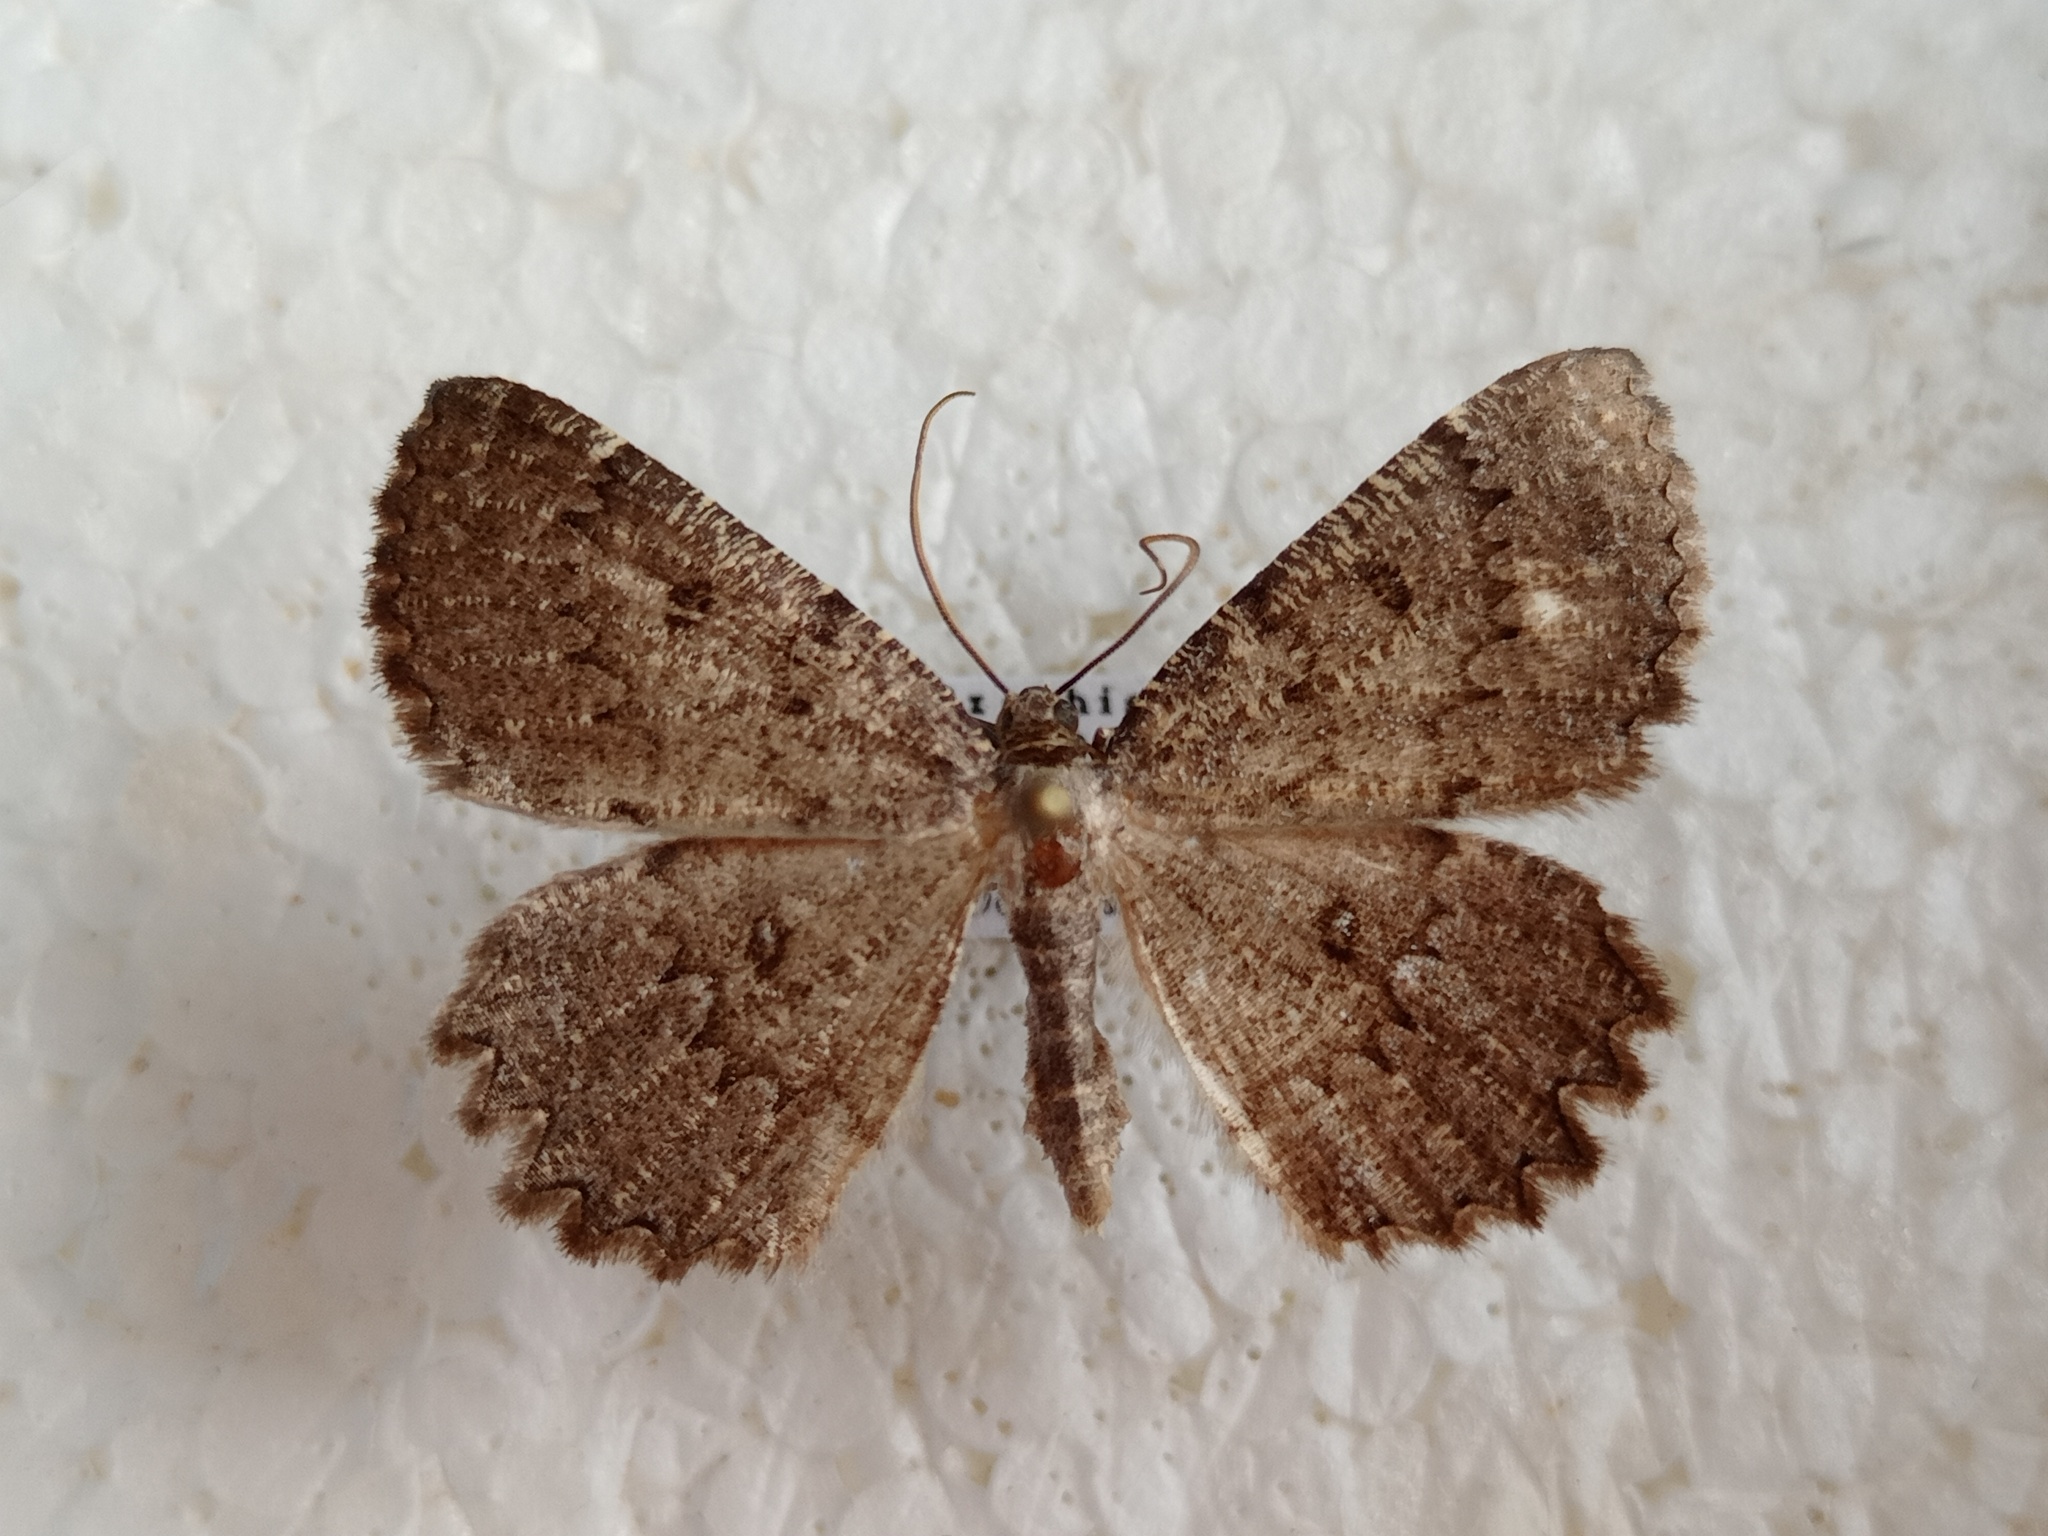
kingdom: Animalia
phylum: Arthropoda
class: Insecta
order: Lepidoptera
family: Geometridae
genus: Charissa
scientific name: Charissa obscurata
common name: Annulet
